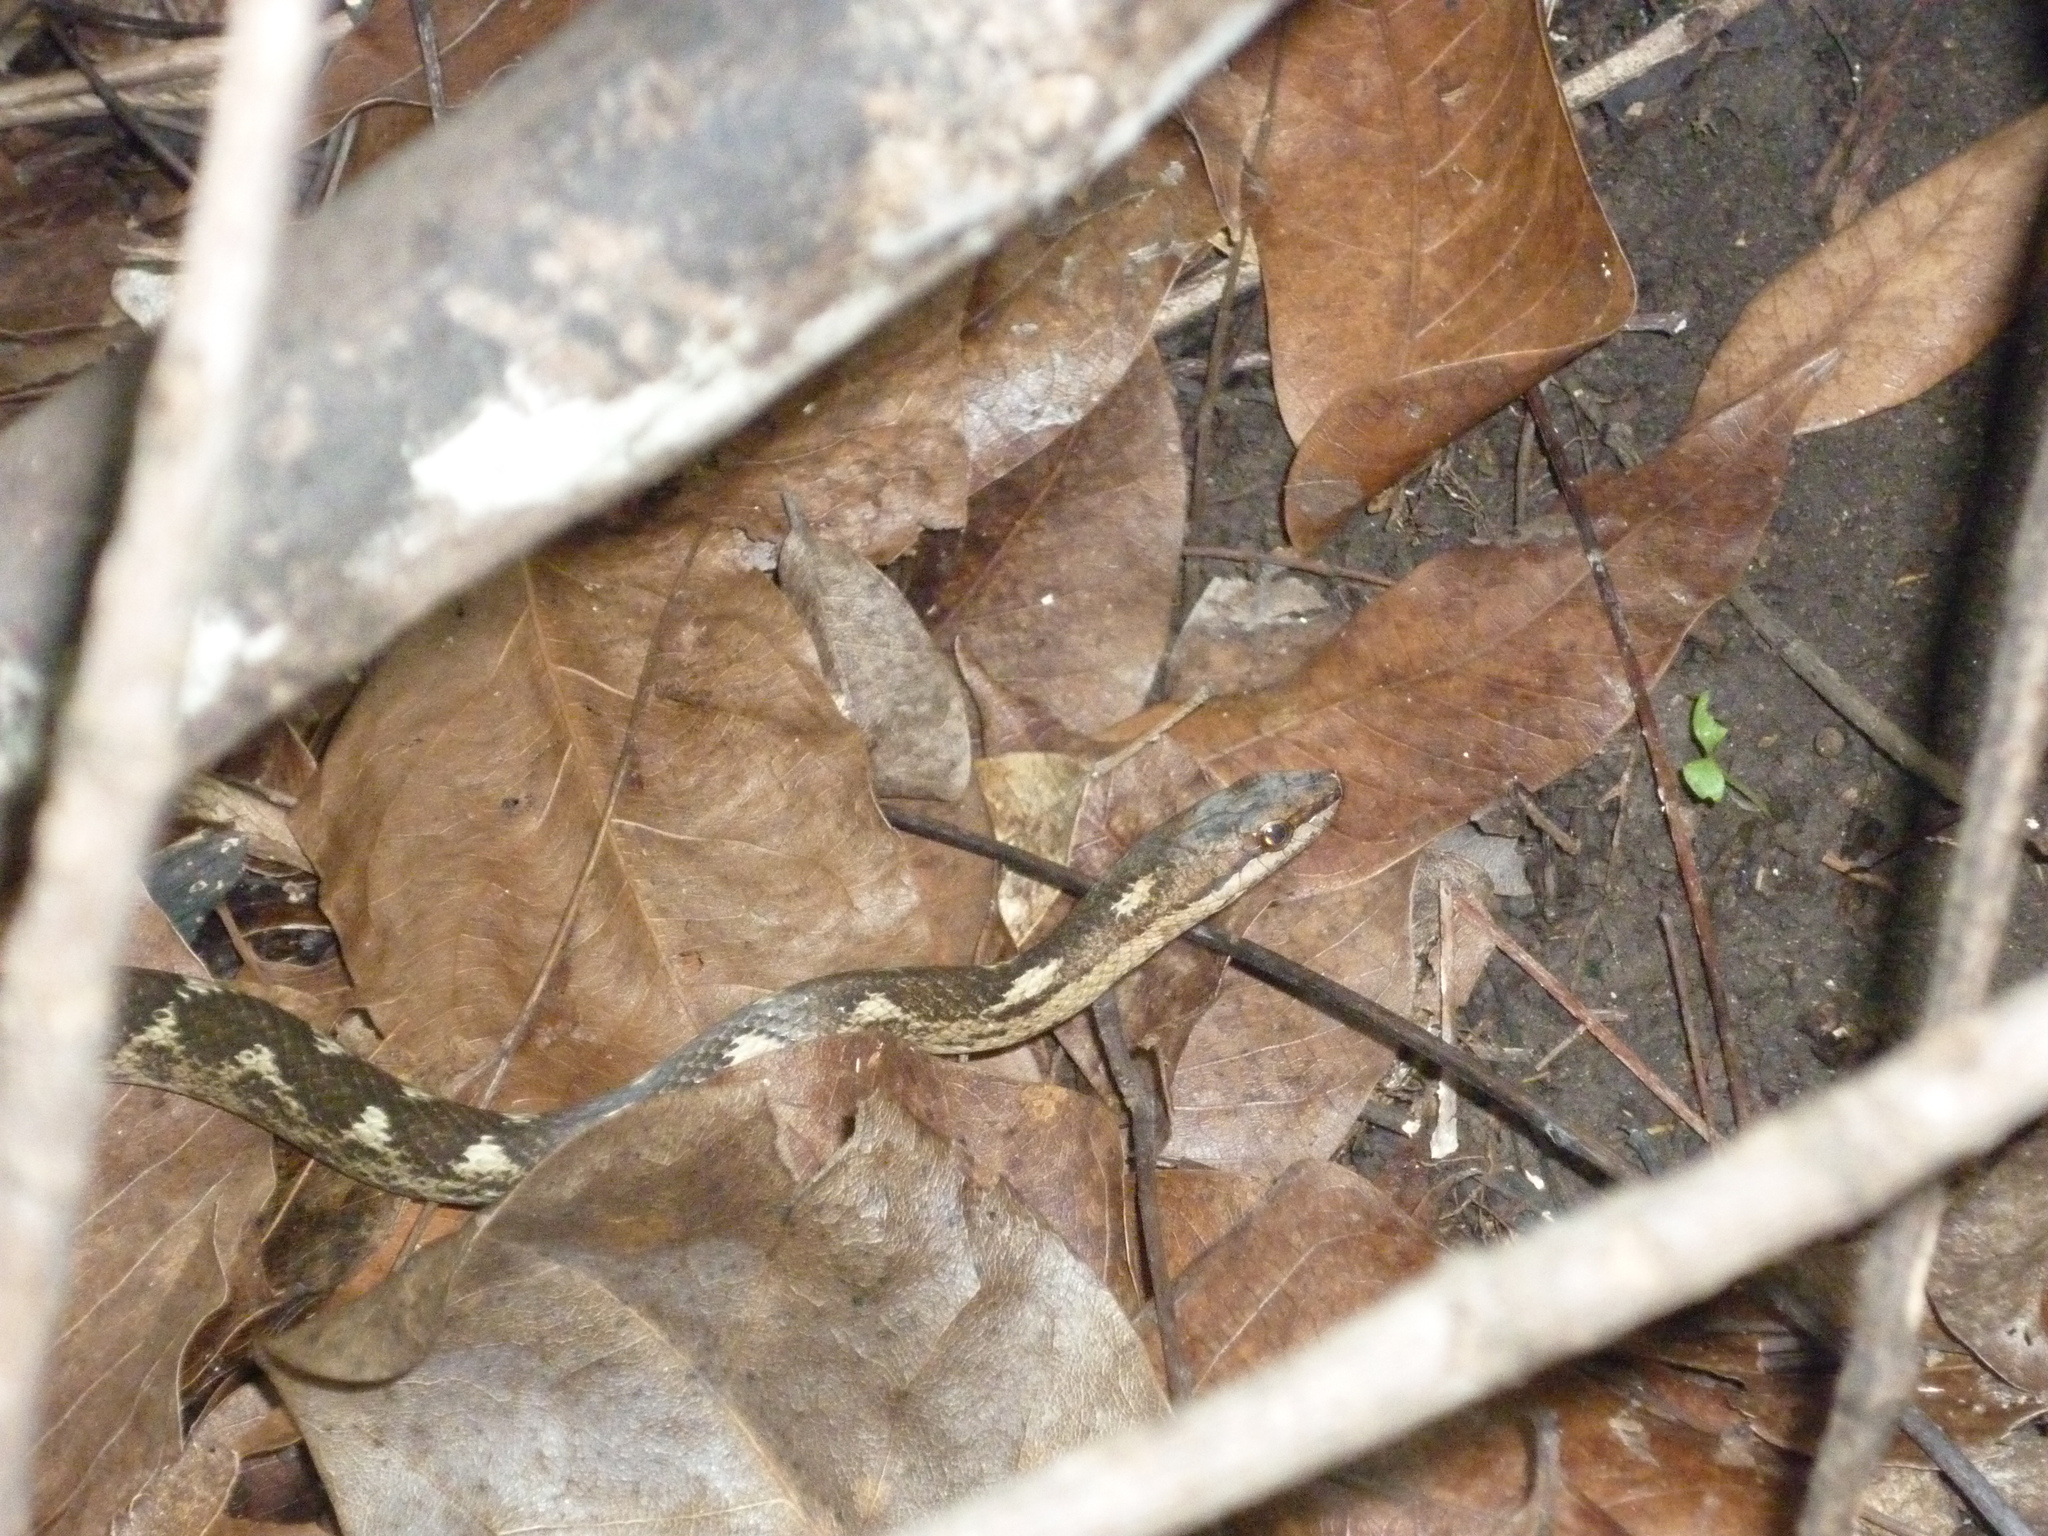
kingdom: Animalia
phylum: Chordata
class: Squamata
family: Colubridae
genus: Alsophis
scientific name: Alsophis sibonius
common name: Dominican racer
